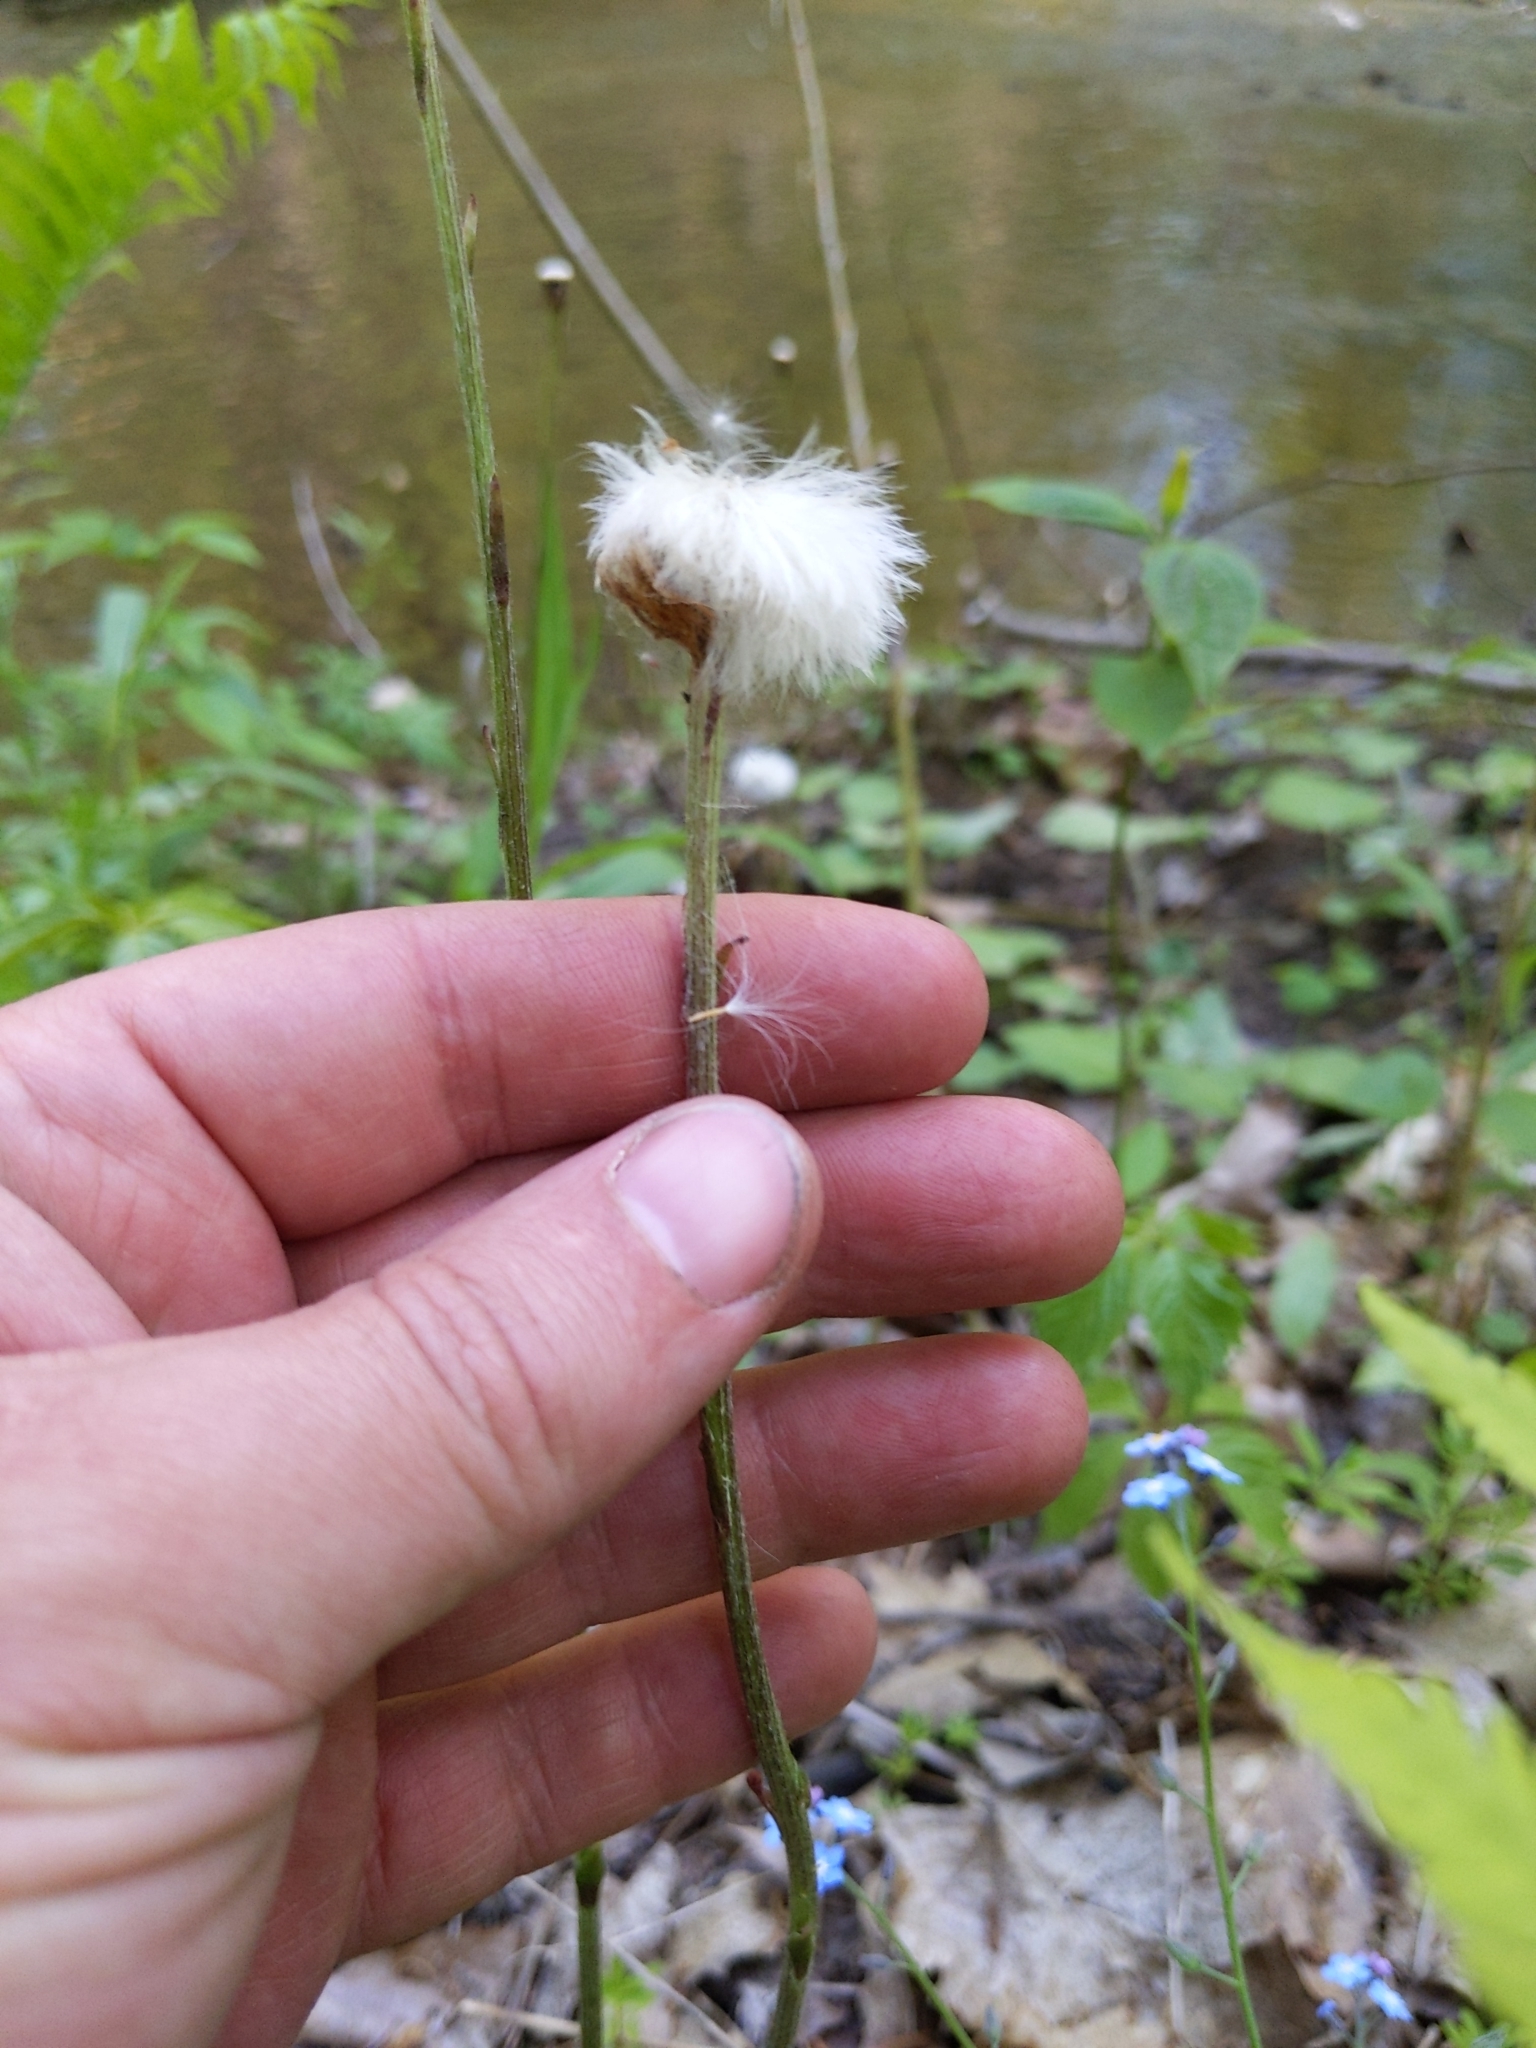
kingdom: Plantae
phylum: Tracheophyta
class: Magnoliopsida
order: Asterales
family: Asteraceae
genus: Tussilago
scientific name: Tussilago farfara
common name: Coltsfoot
